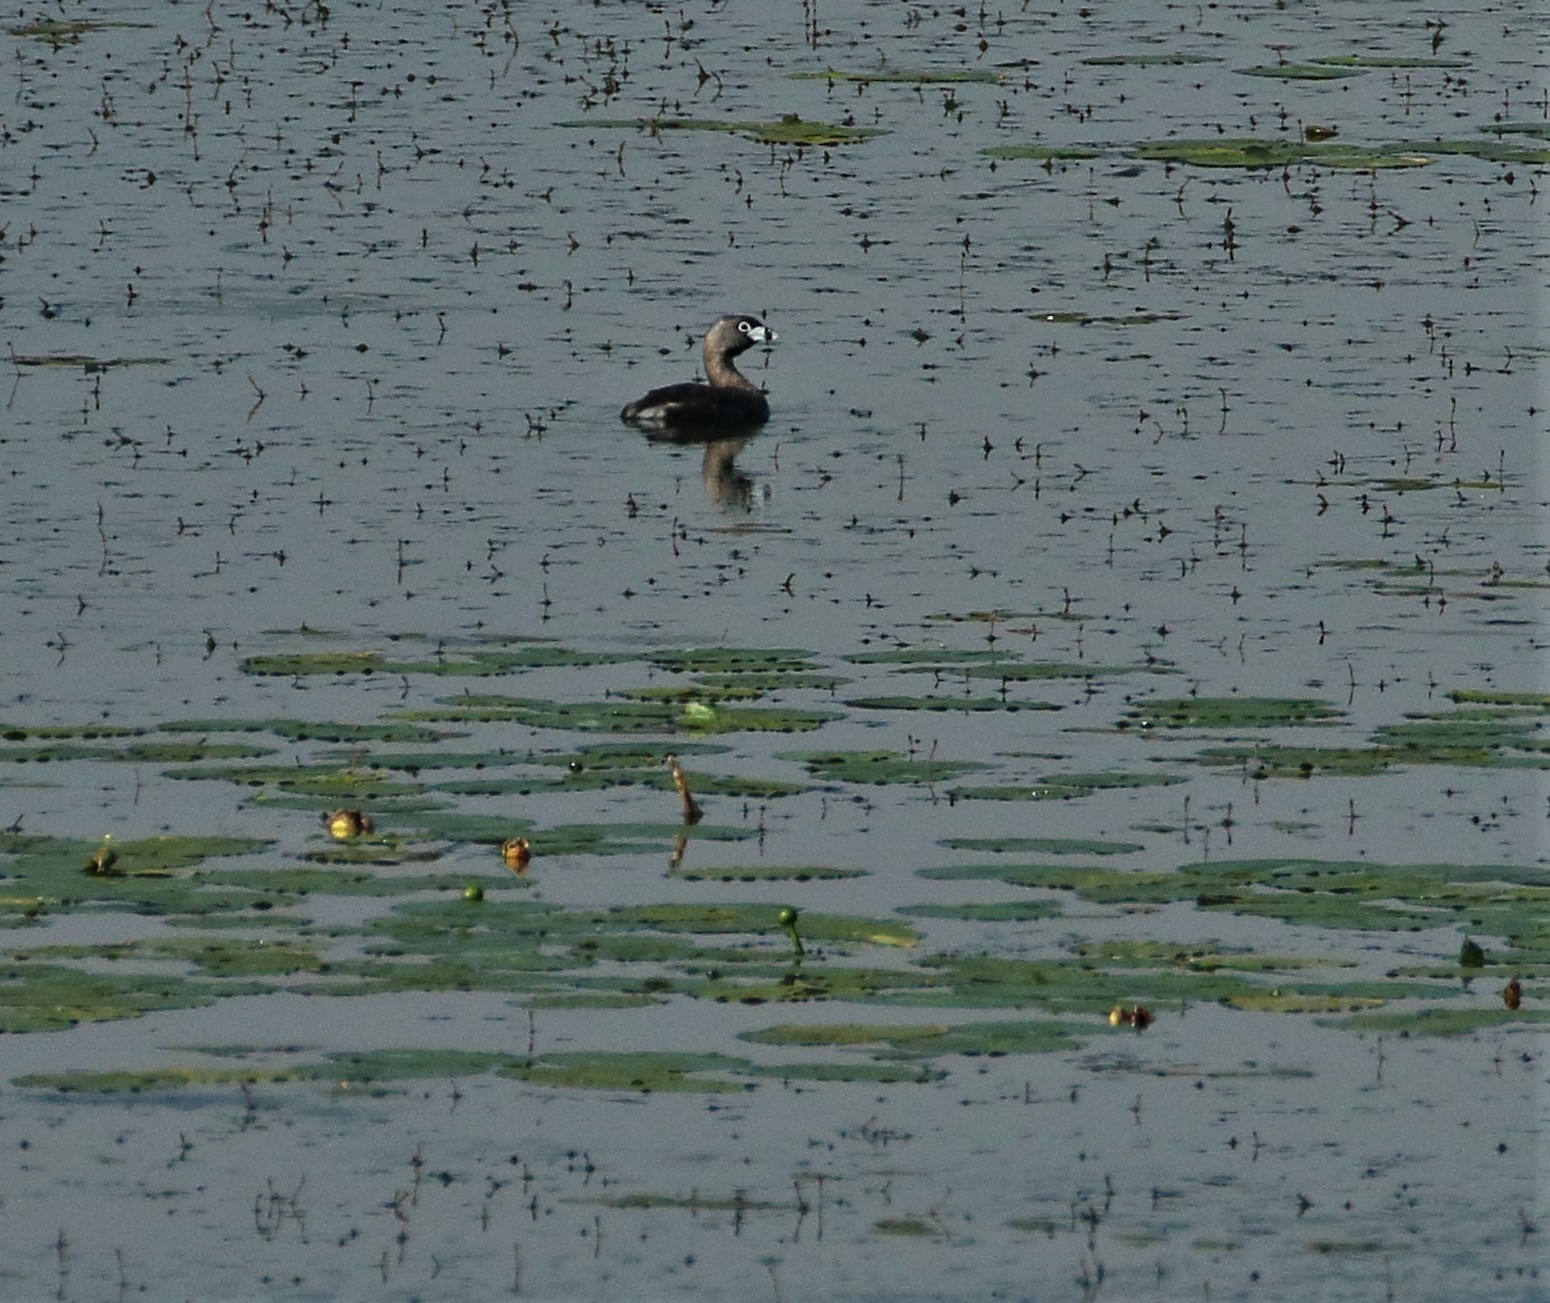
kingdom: Animalia
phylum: Chordata
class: Aves
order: Podicipediformes
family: Podicipedidae
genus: Podilymbus
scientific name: Podilymbus podiceps
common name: Pied-billed grebe
